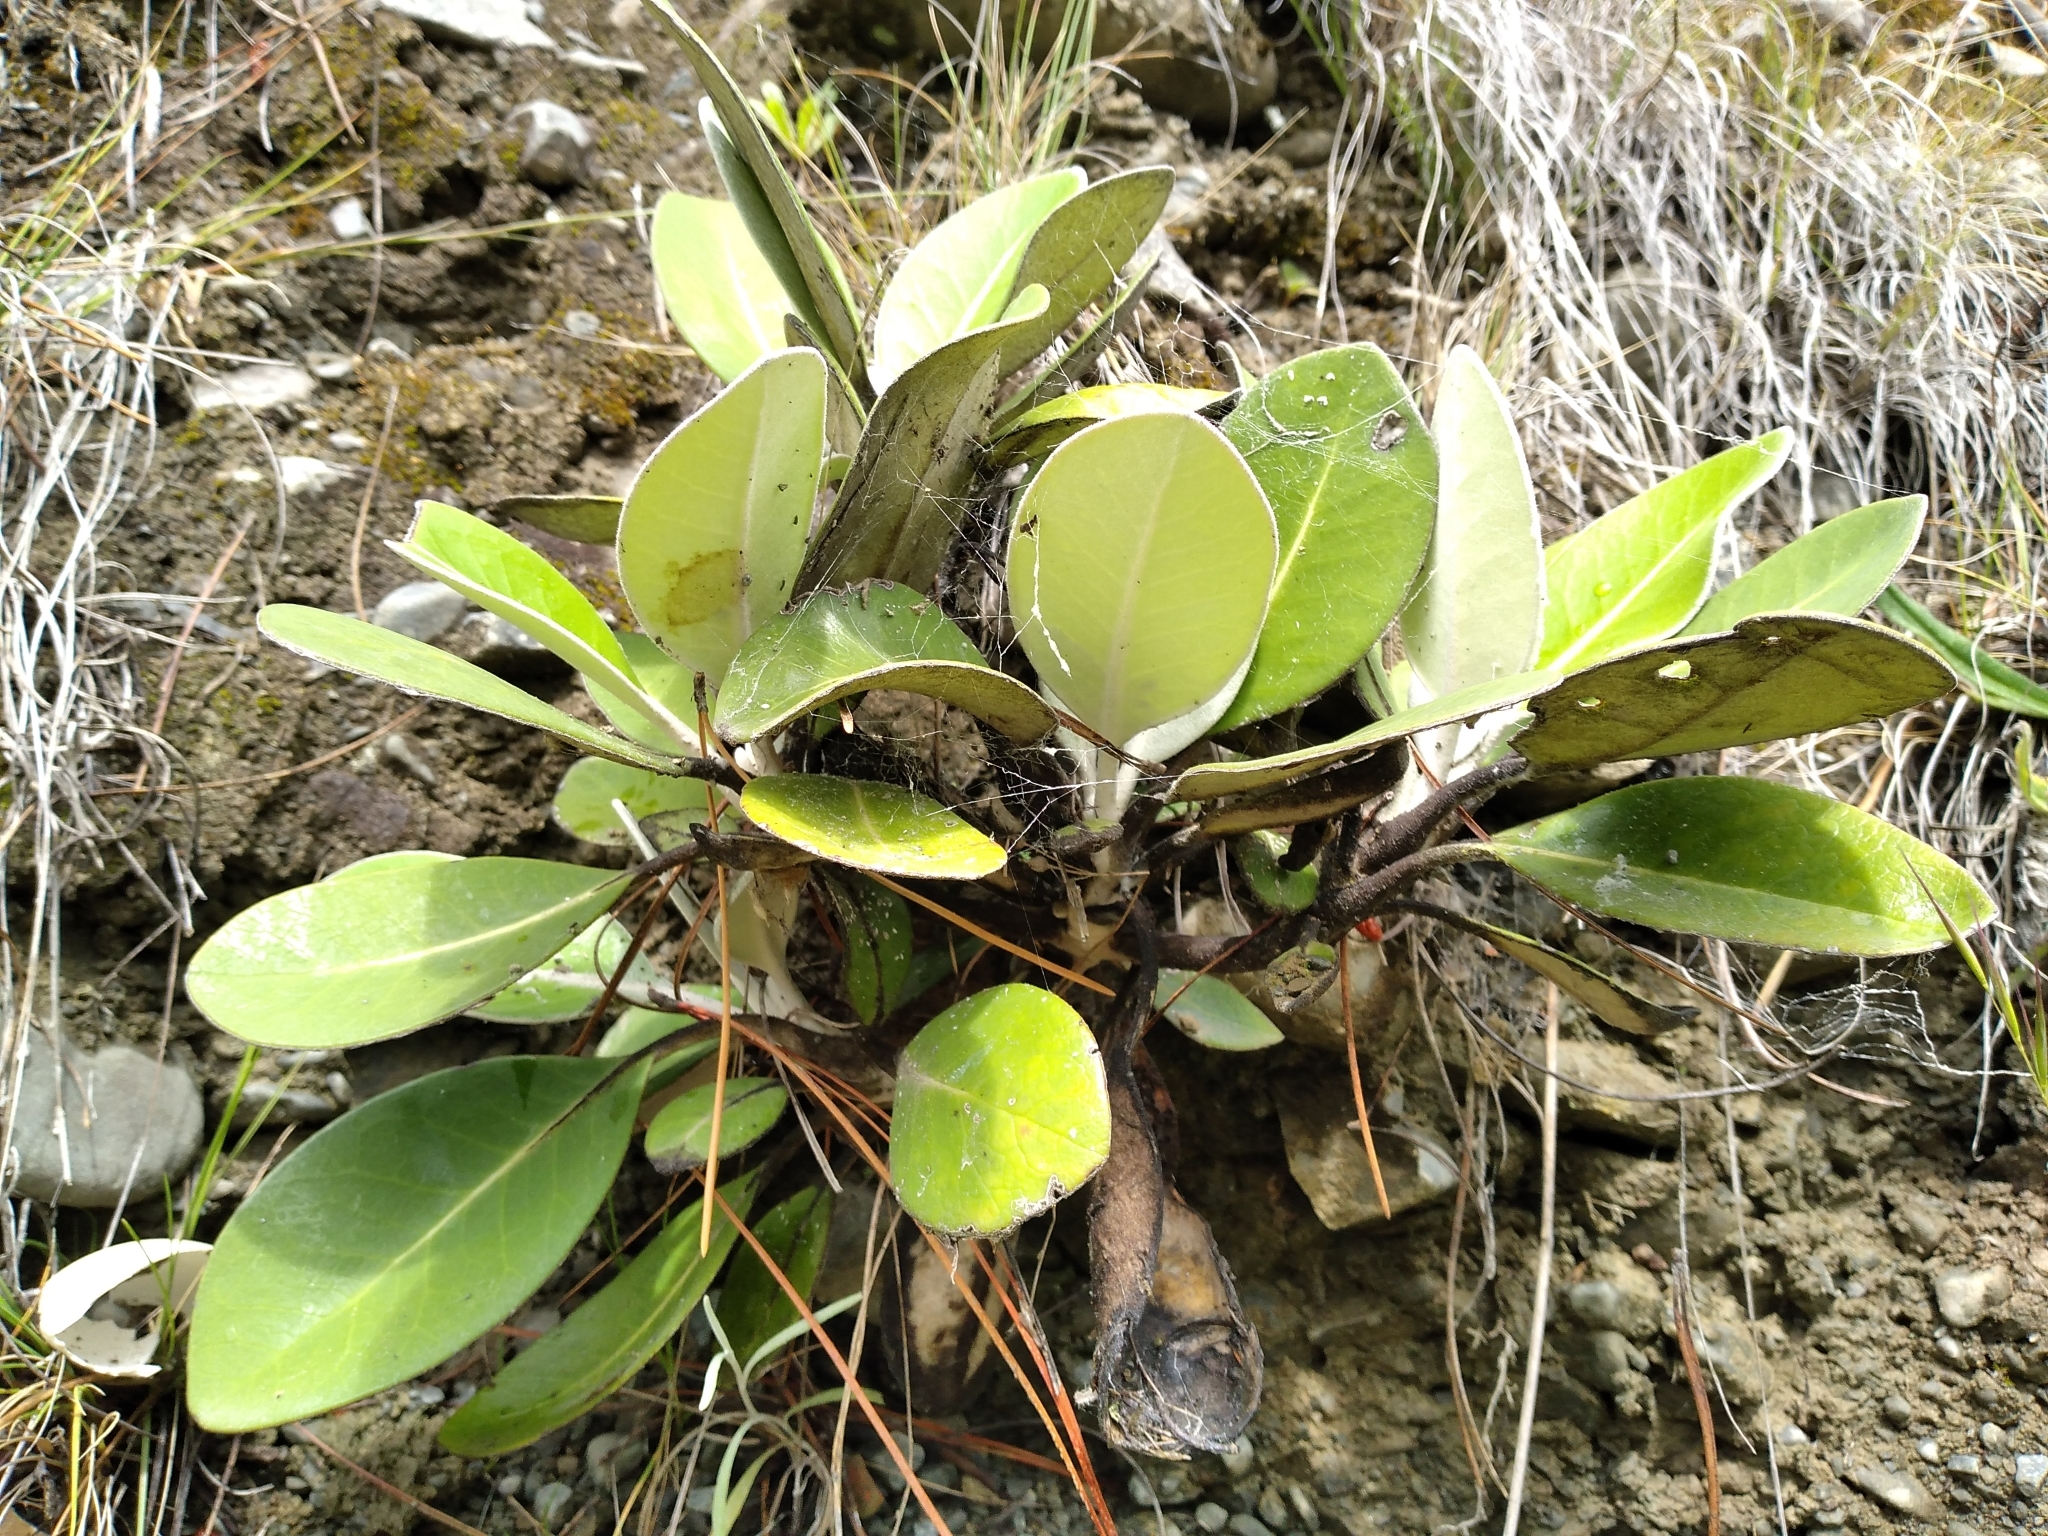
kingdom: Plantae
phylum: Tracheophyta
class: Magnoliopsida
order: Asterales
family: Asteraceae
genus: Pachystegia
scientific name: Pachystegia insignis
